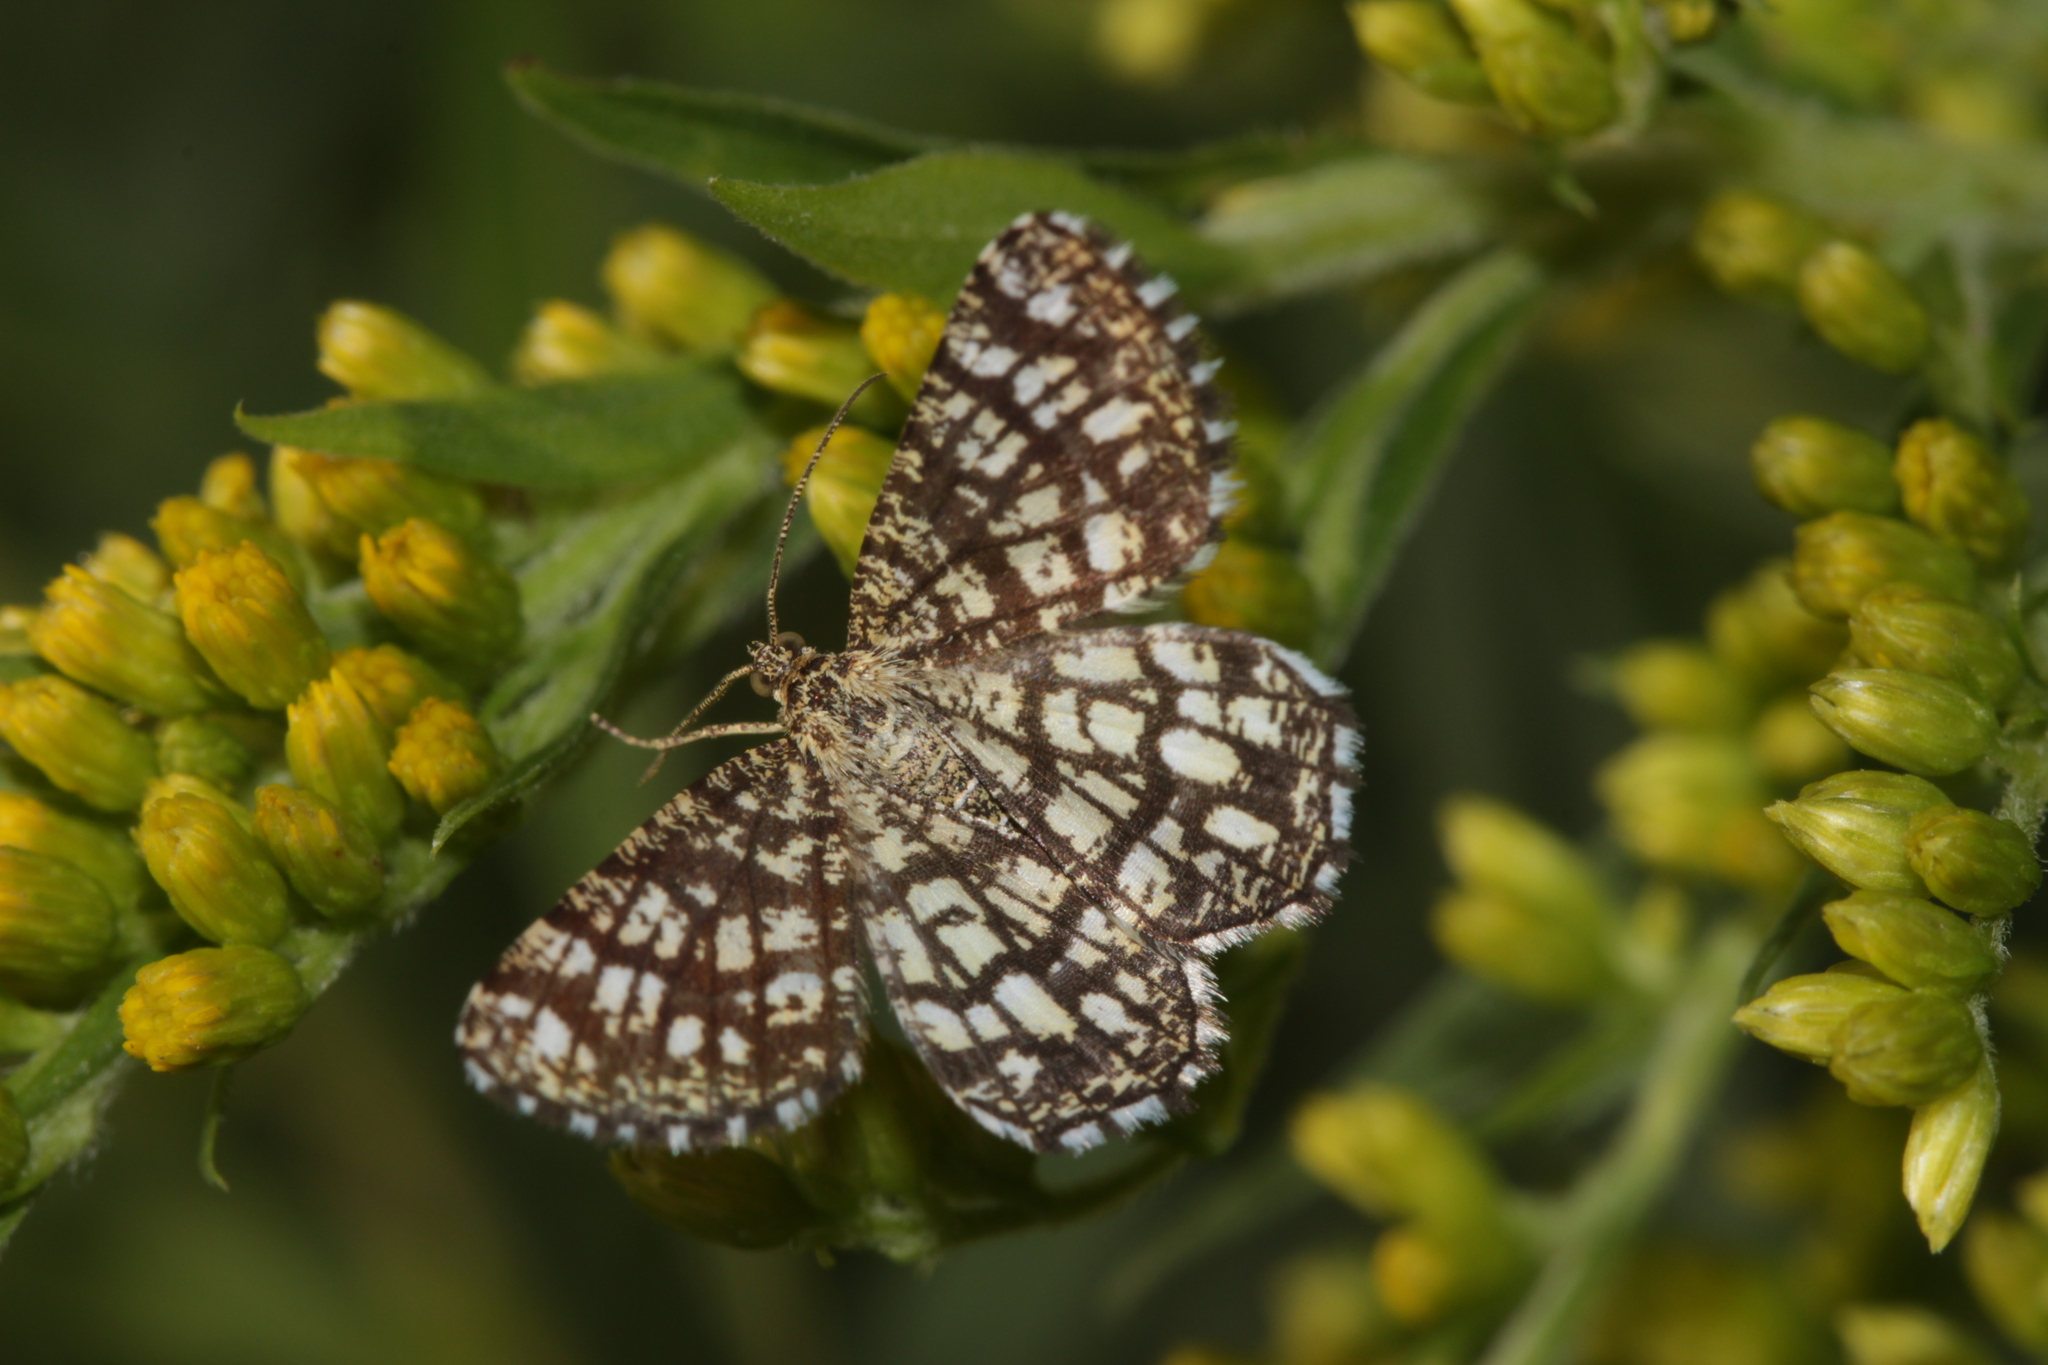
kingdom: Animalia
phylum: Arthropoda
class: Insecta
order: Lepidoptera
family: Geometridae
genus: Chiasmia
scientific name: Chiasmia clathrata
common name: Latticed heath
